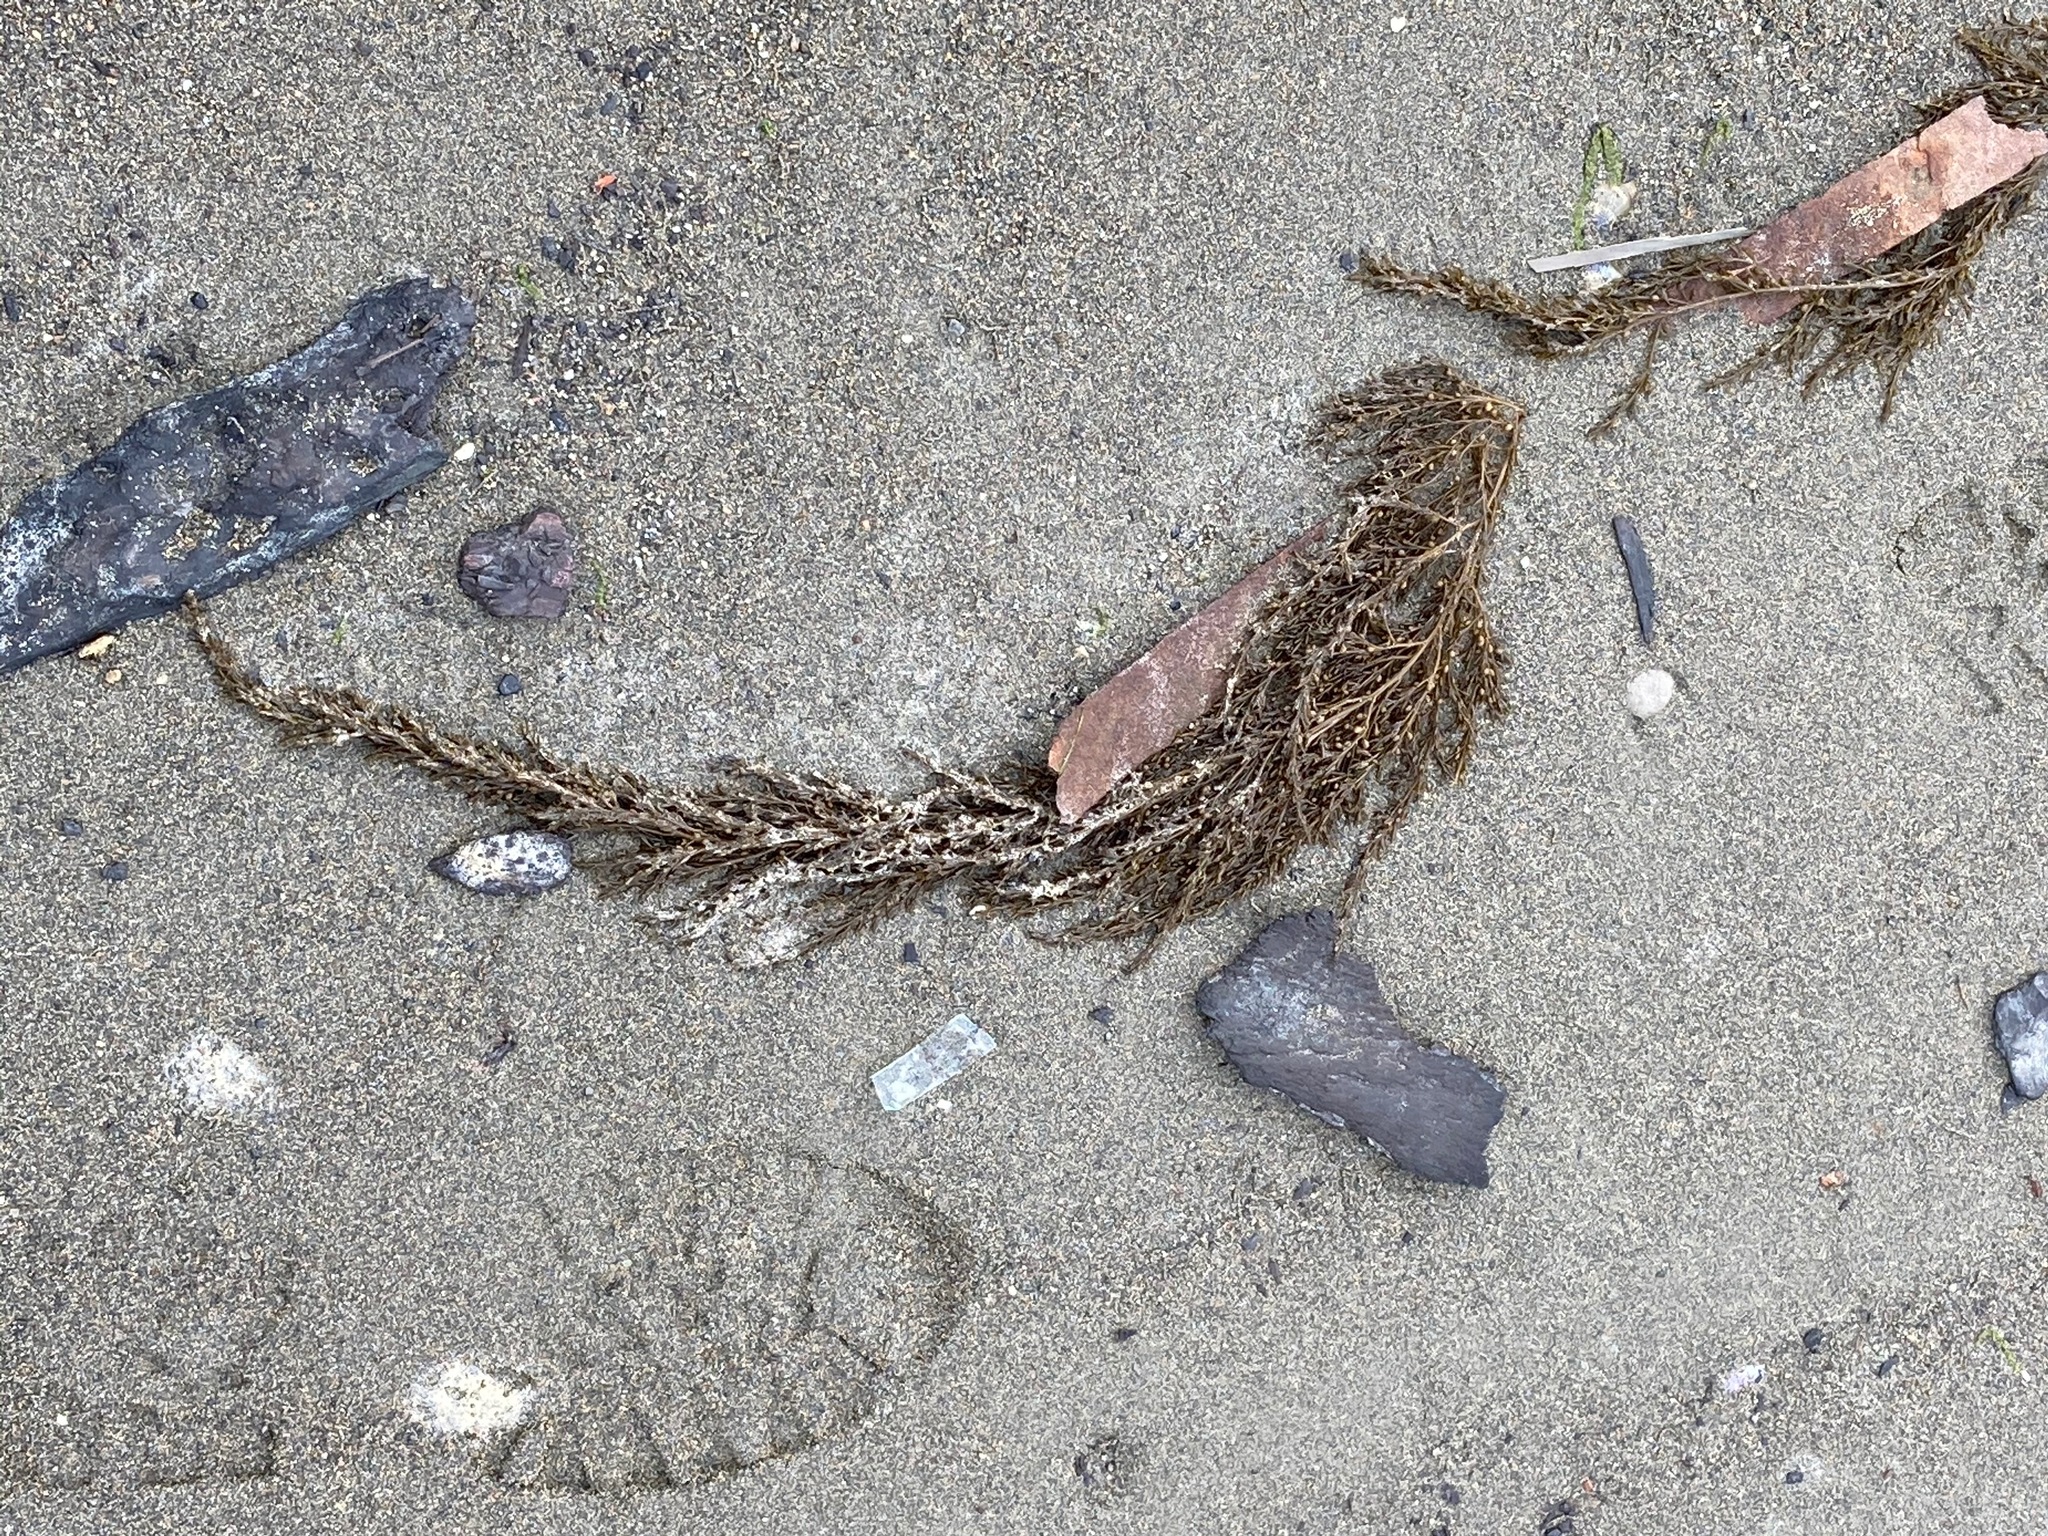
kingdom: Chromista
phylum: Ochrophyta
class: Phaeophyceae
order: Fucales
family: Sargassaceae
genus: Sargassum
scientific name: Sargassum muticum
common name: Japweed
